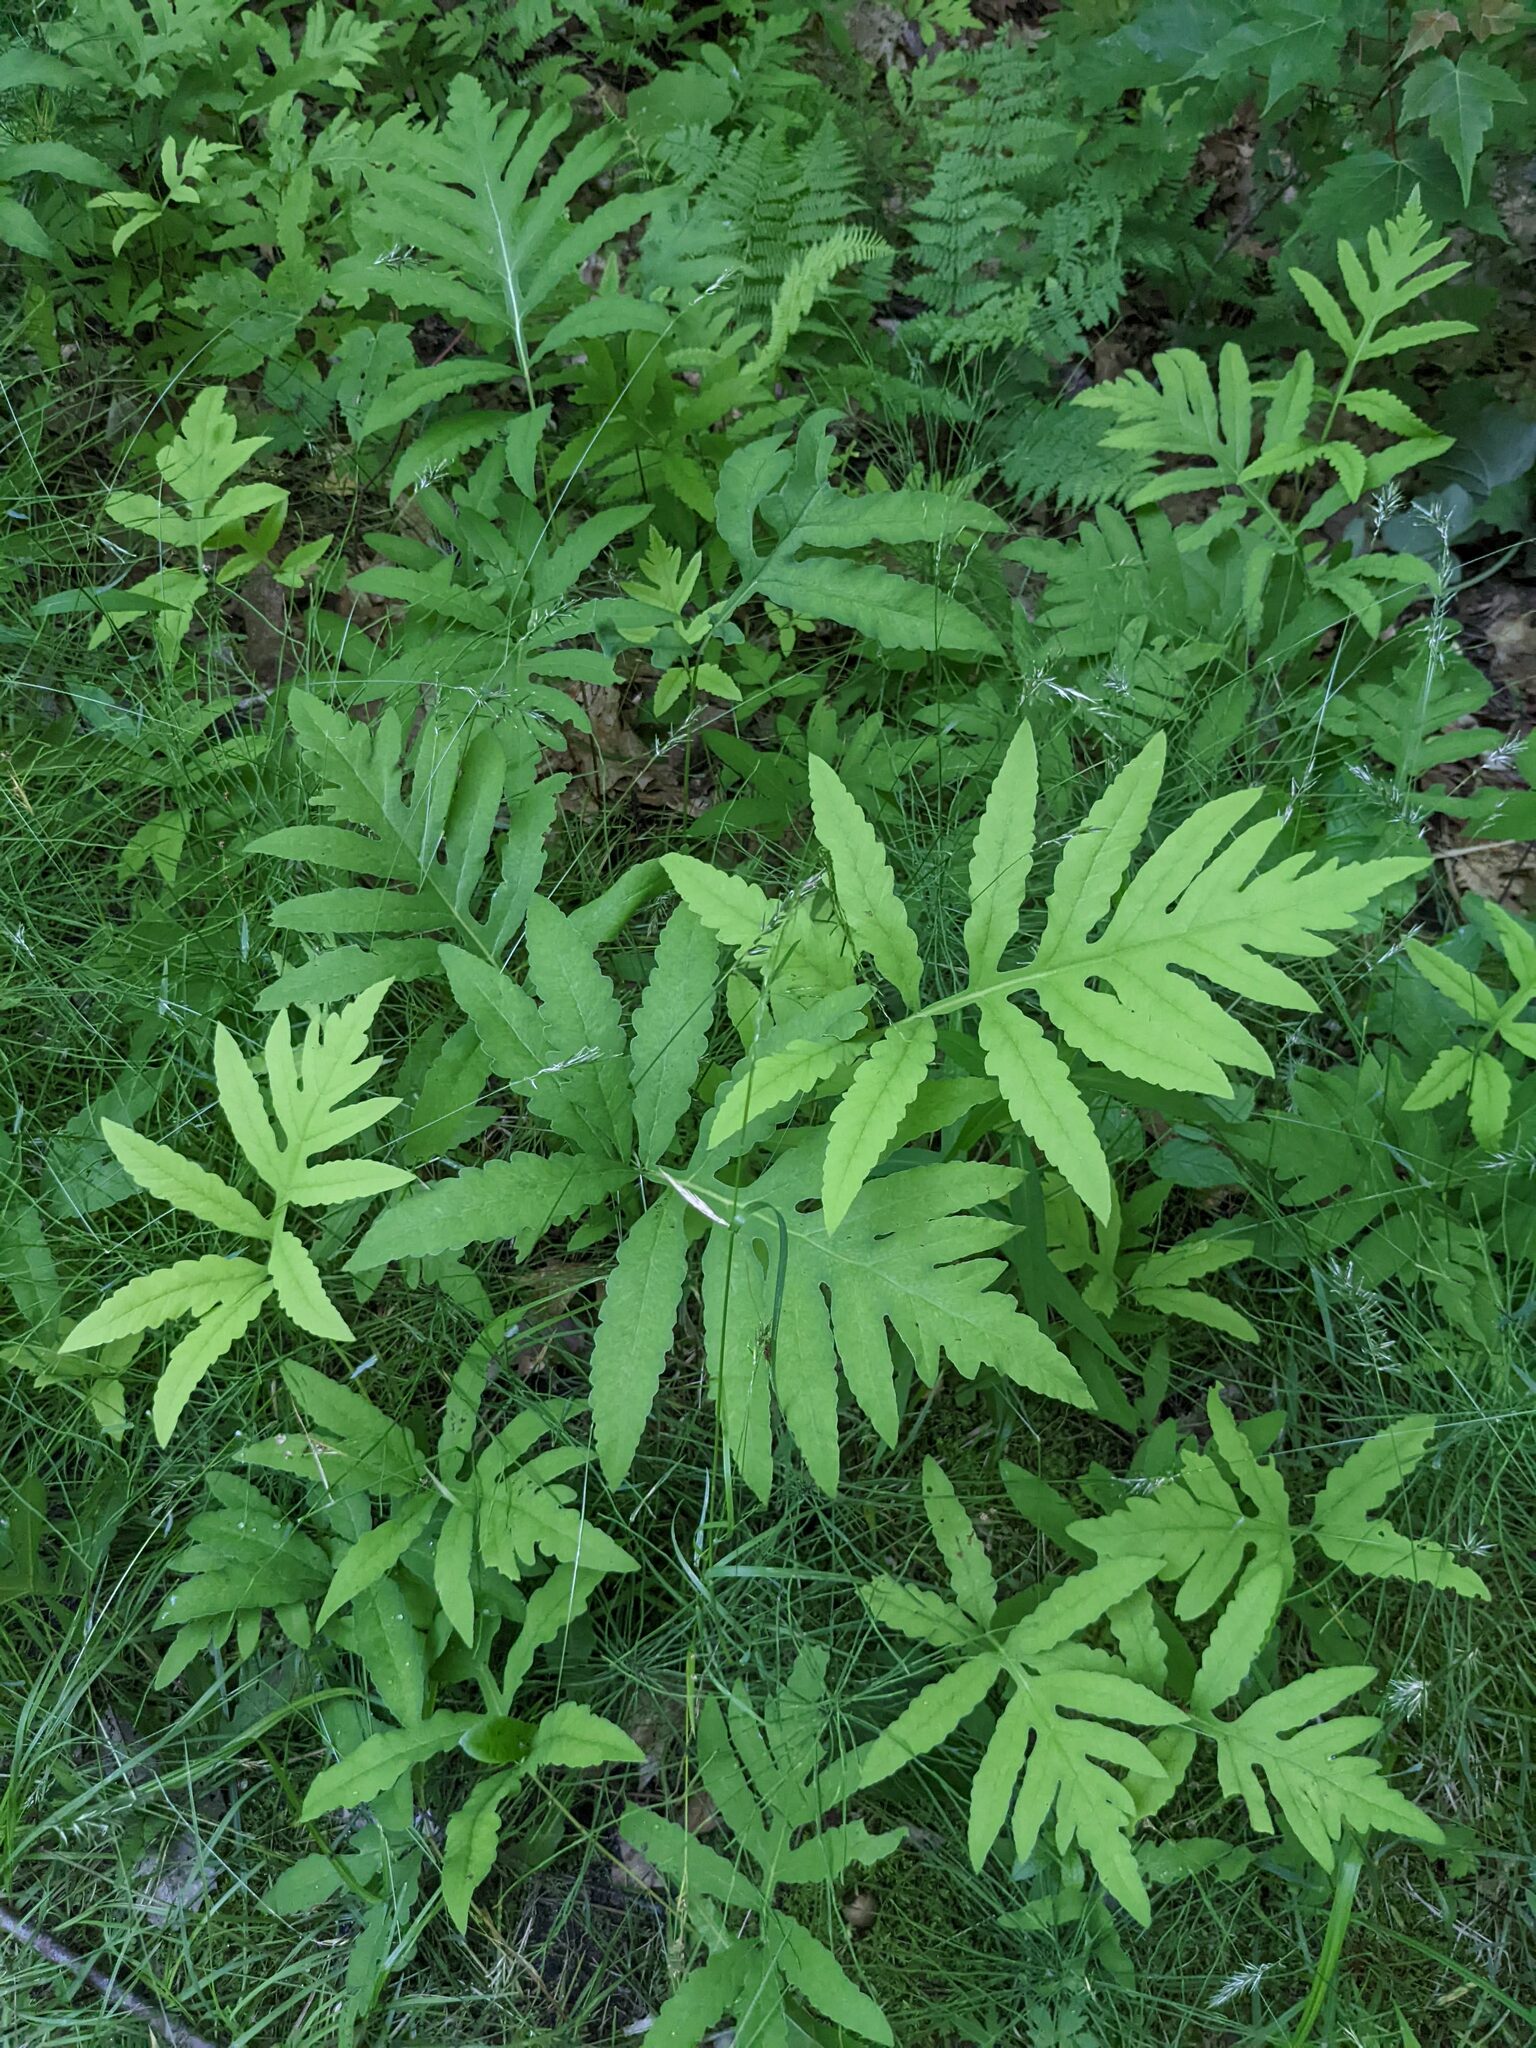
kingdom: Plantae
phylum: Tracheophyta
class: Polypodiopsida
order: Polypodiales
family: Onocleaceae
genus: Onoclea
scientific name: Onoclea sensibilis
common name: Sensitive fern
